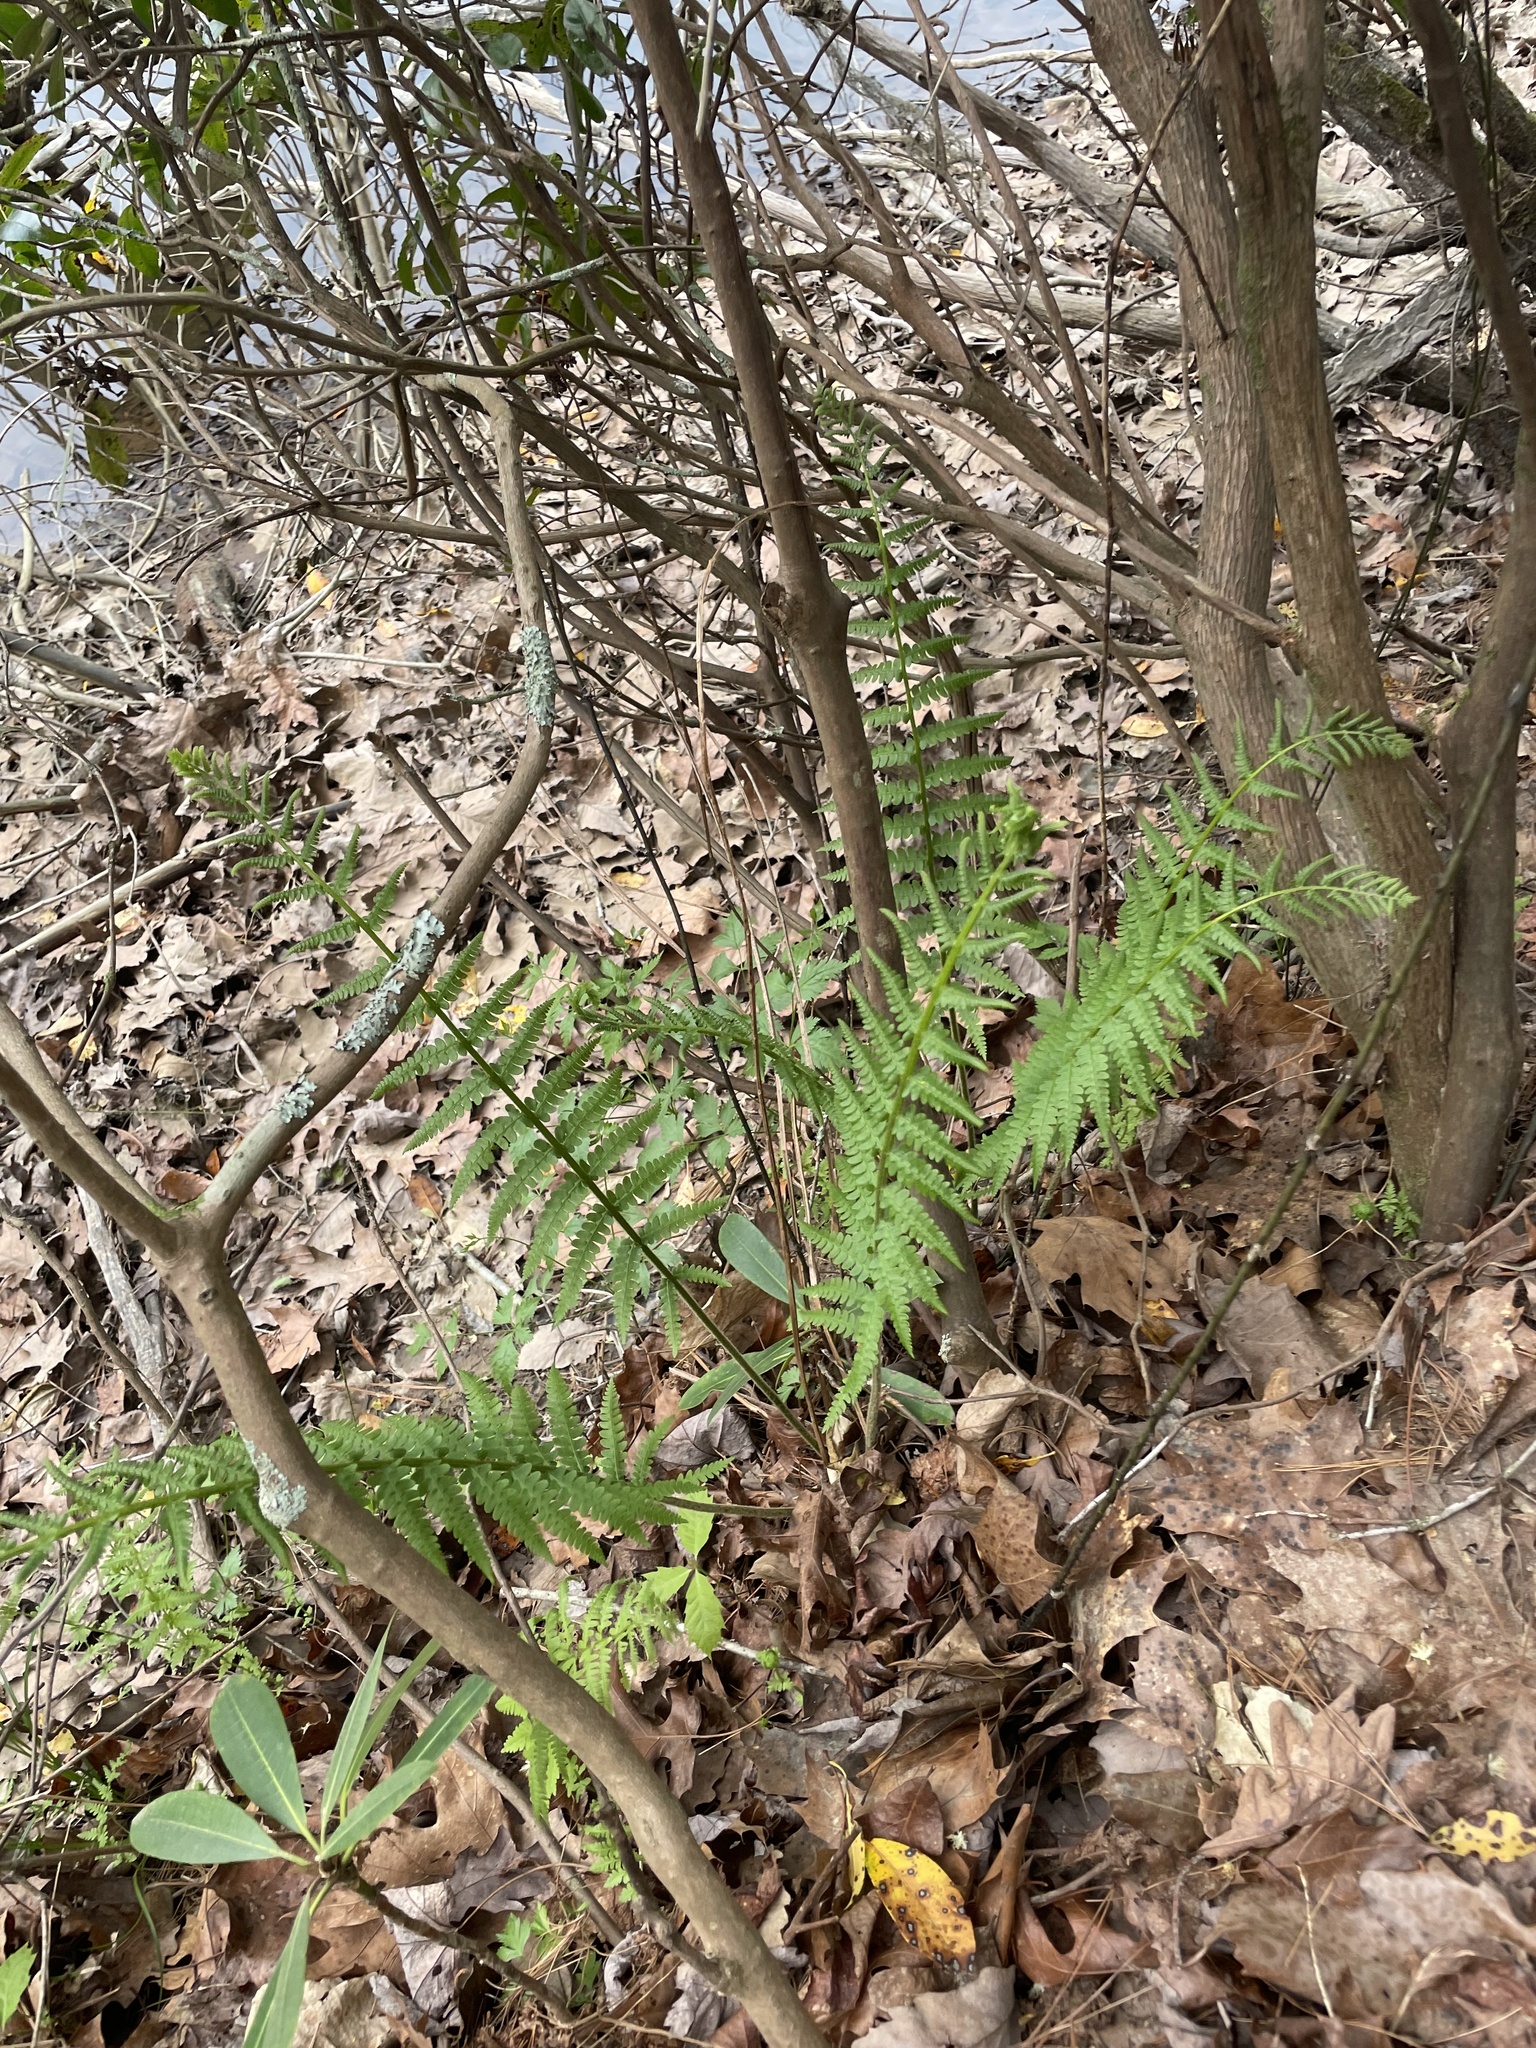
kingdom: Plantae
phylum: Tracheophyta
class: Polypodiopsida
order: Osmundales
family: Osmundaceae
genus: Osmundastrum
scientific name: Osmundastrum cinnamomeum
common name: Cinnamon fern
